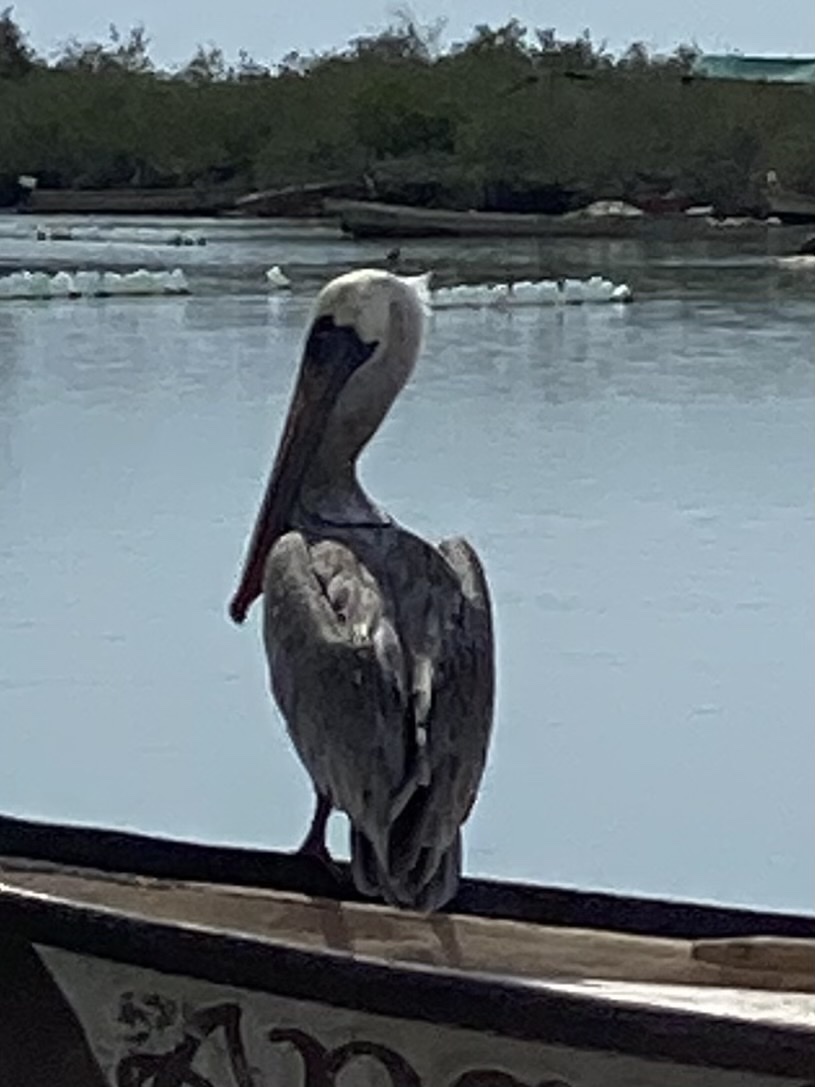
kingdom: Animalia
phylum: Chordata
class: Aves
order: Pelecaniformes
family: Pelecanidae
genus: Pelecanus
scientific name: Pelecanus occidentalis
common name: Brown pelican
